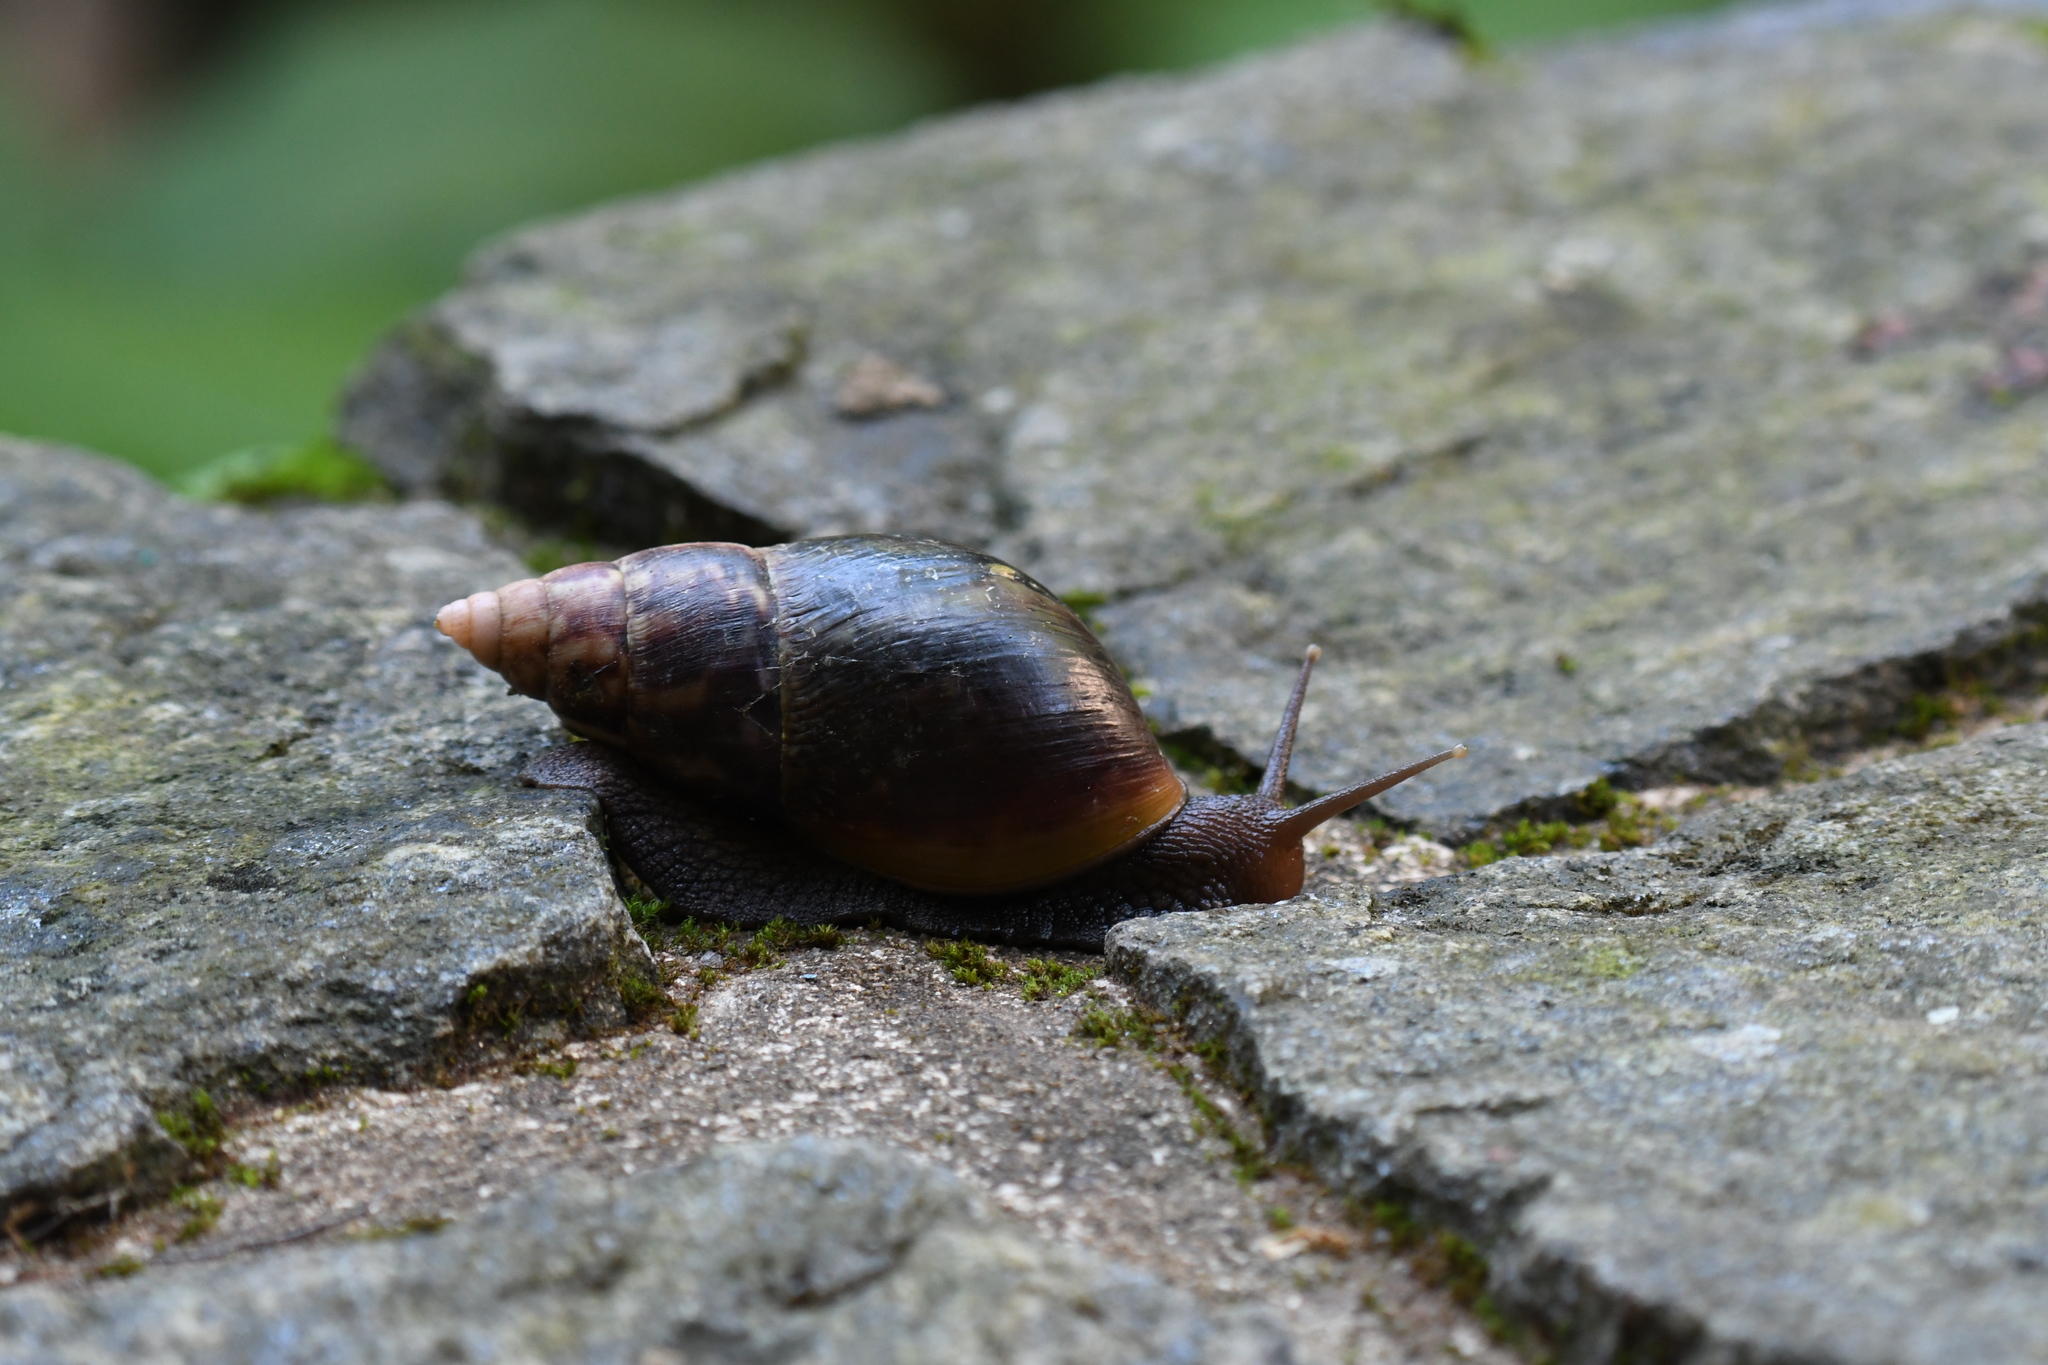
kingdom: Animalia
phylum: Mollusca
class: Gastropoda
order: Stylommatophora
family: Achatinidae
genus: Lissachatina
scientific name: Lissachatina fulica
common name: Giant african snail
